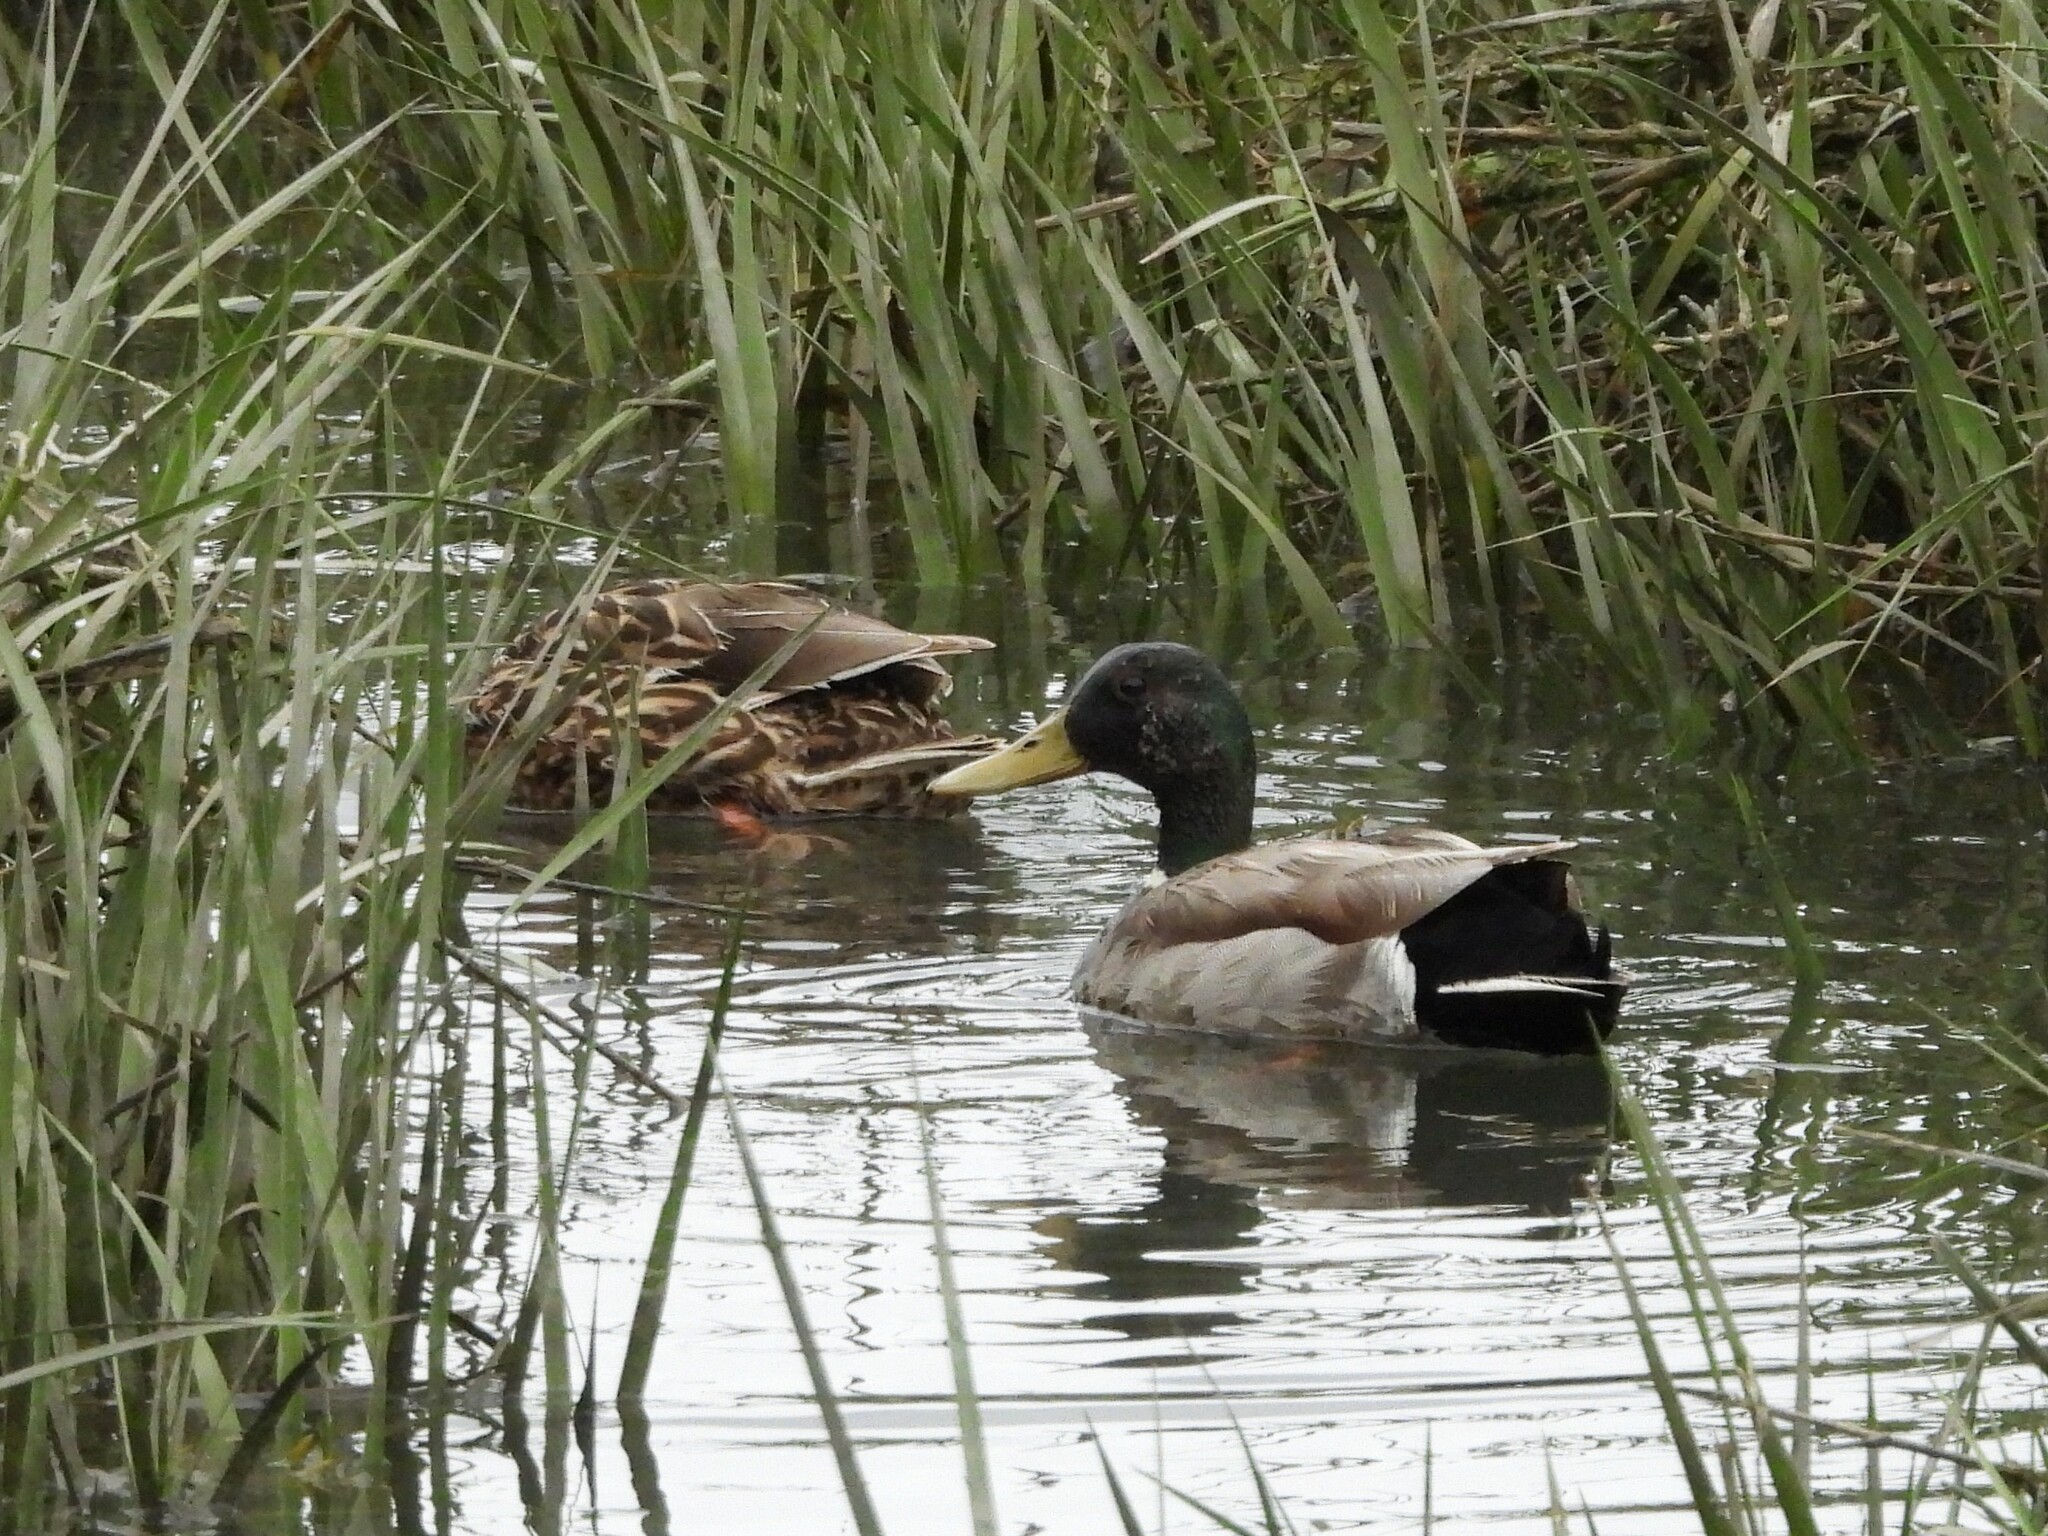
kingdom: Animalia
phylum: Chordata
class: Aves
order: Anseriformes
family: Anatidae
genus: Anas
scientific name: Anas platyrhynchos
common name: Mallard
